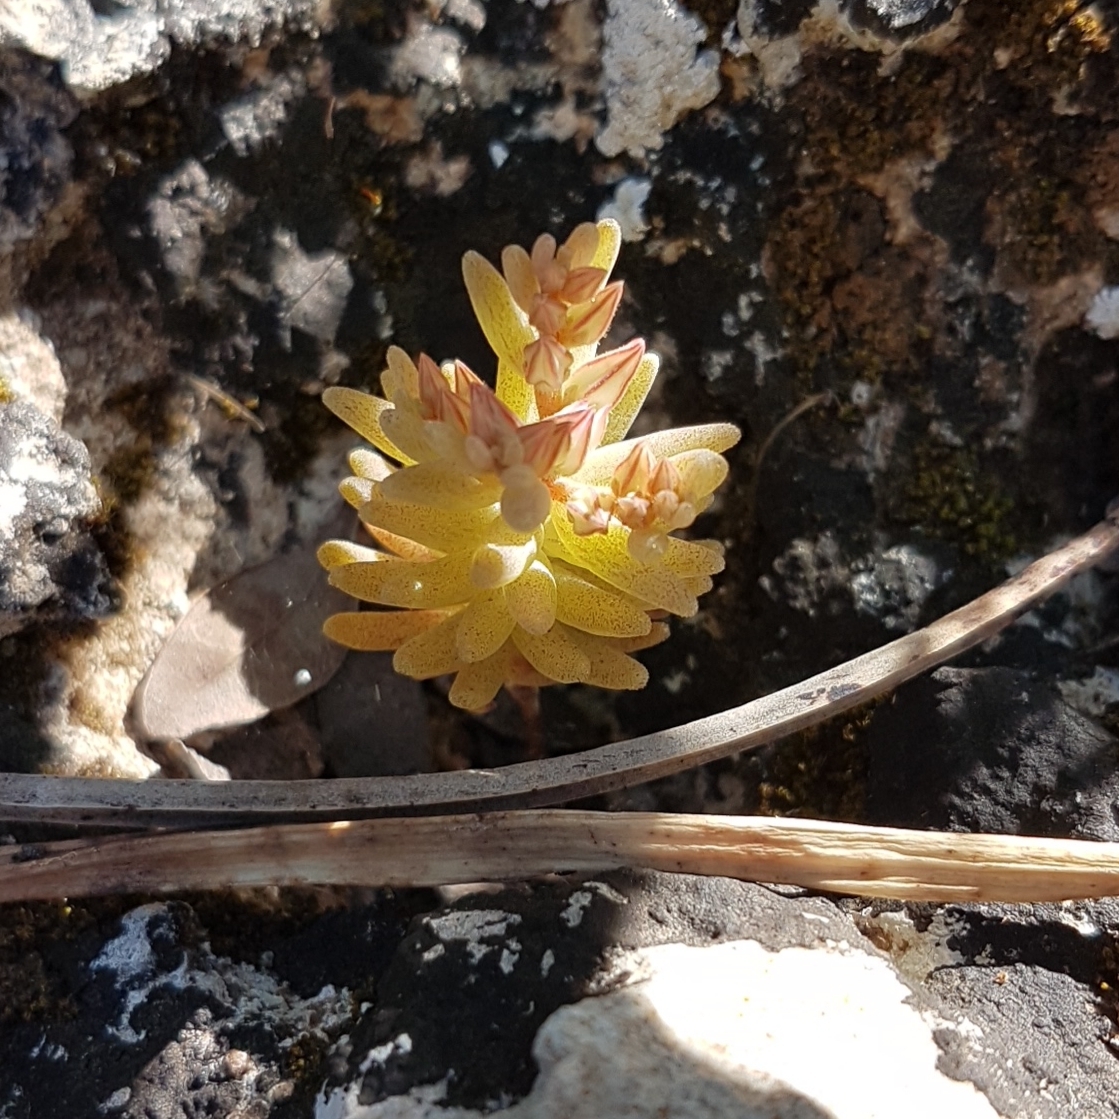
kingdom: Plantae
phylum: Tracheophyta
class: Magnoliopsida
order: Saxifragales
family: Crassulaceae
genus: Sedum
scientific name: Sedum rubens
